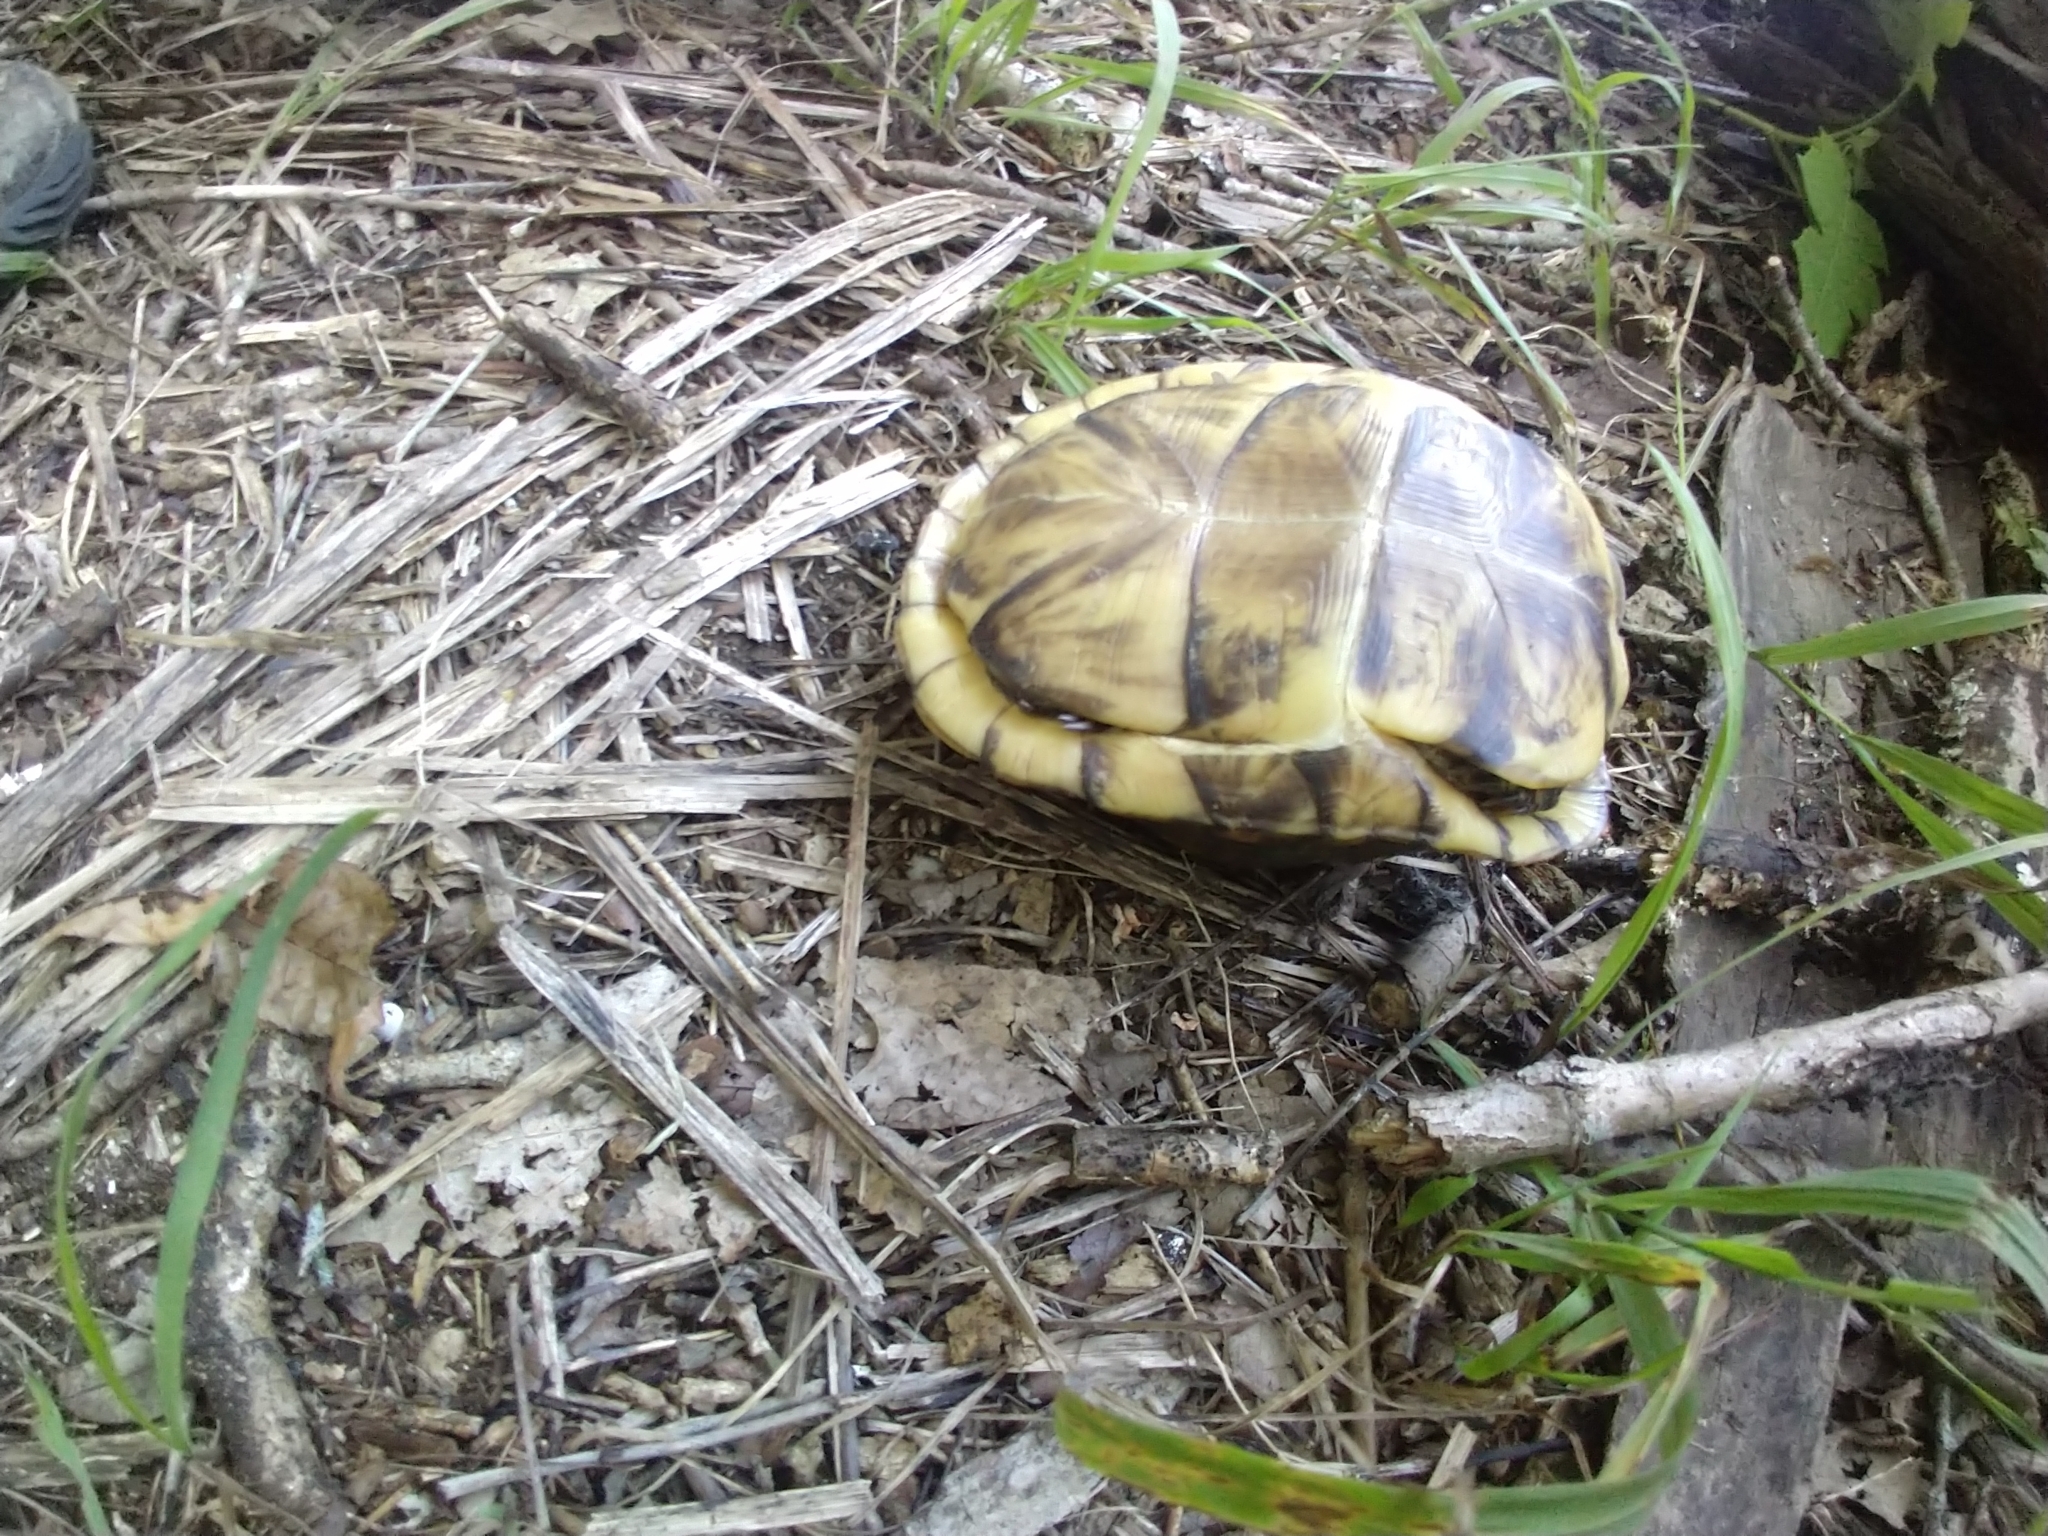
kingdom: Animalia
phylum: Chordata
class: Testudines
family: Emydidae
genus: Terrapene
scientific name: Terrapene carolina
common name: Common box turtle
